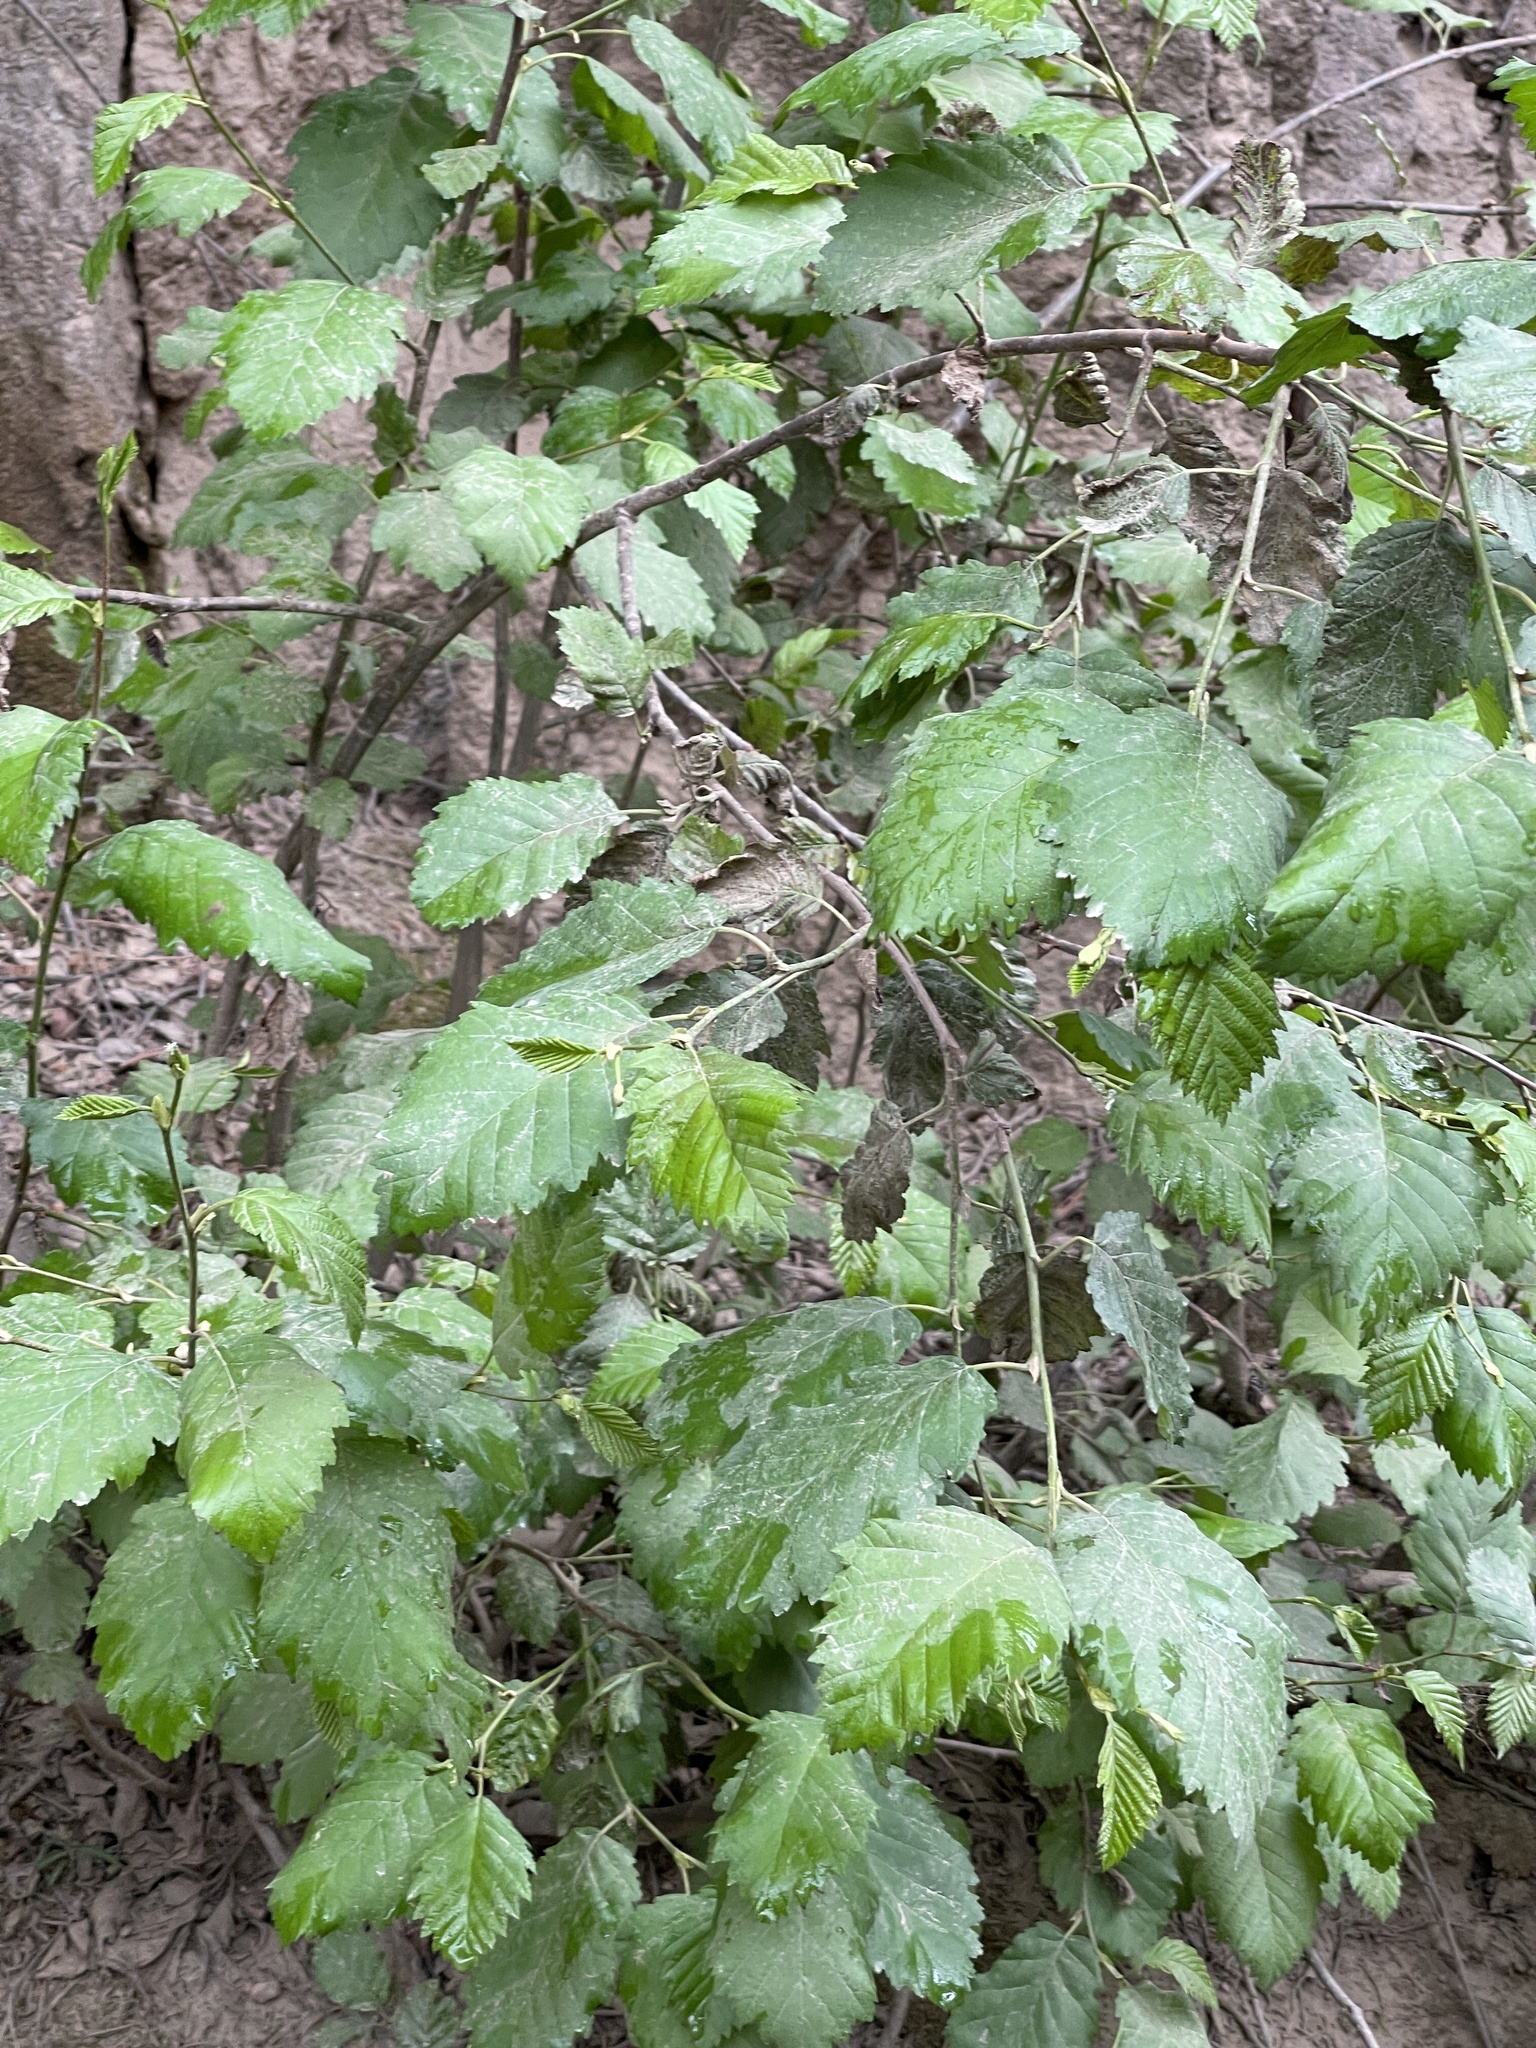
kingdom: Plantae
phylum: Tracheophyta
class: Magnoliopsida
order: Fagales
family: Betulaceae
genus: Alnus
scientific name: Alnus incana
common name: Grey alder
